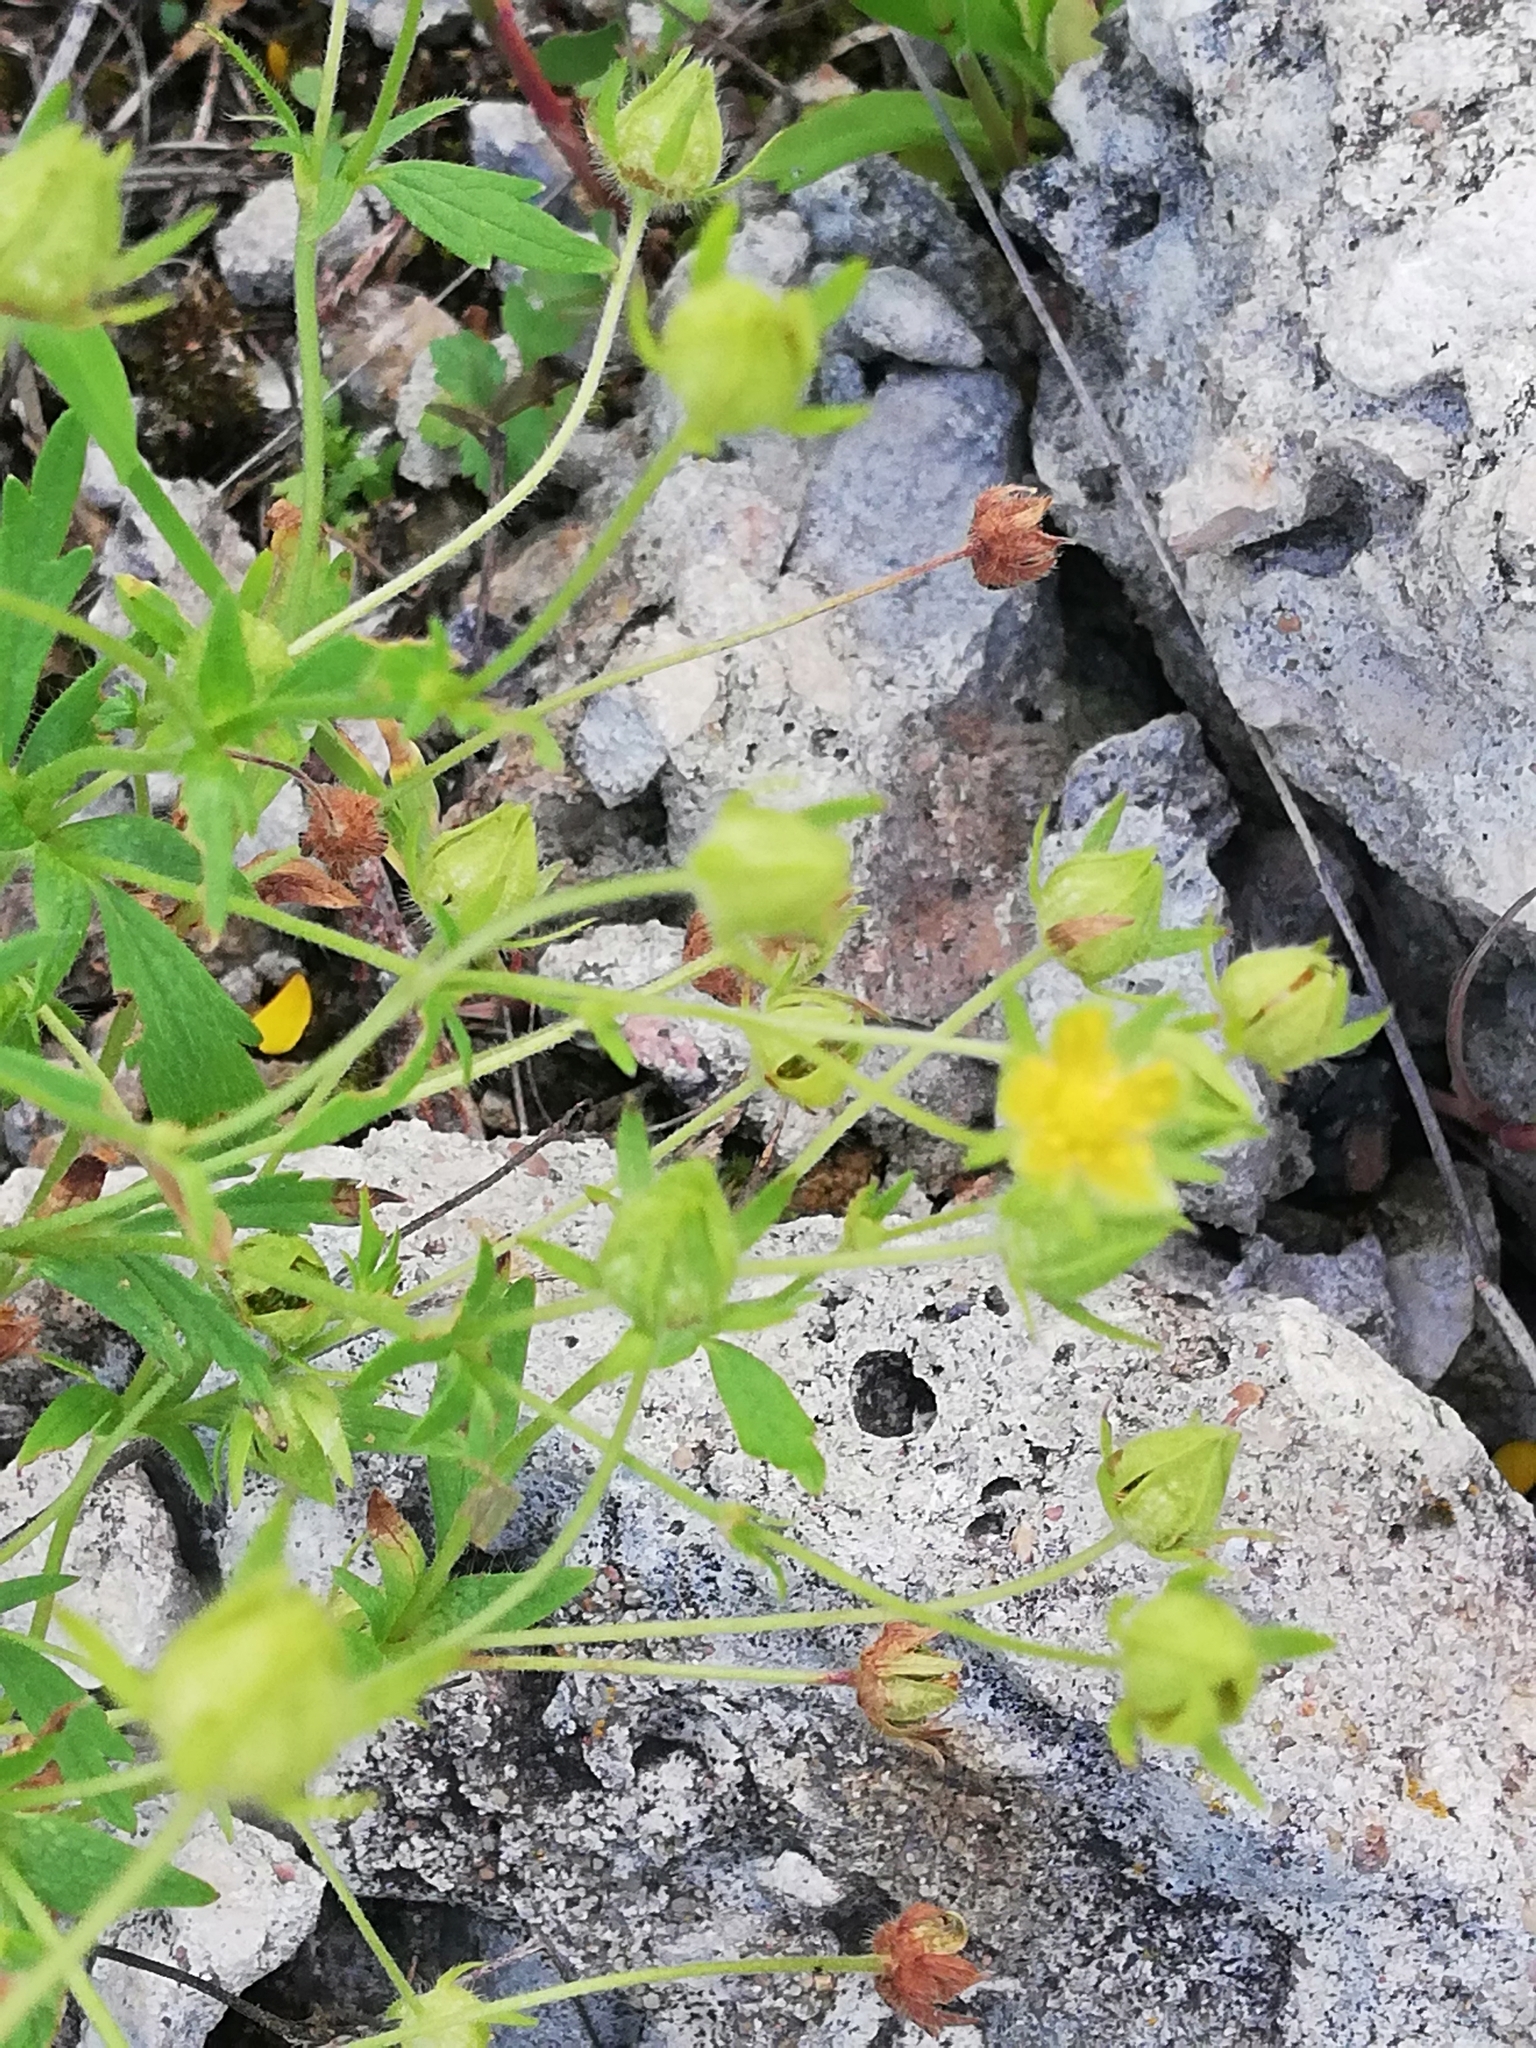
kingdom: Plantae
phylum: Tracheophyta
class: Magnoliopsida
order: Rosales
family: Rosaceae
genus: Potentilla
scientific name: Potentilla thuringiaca
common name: European cinquefoil
